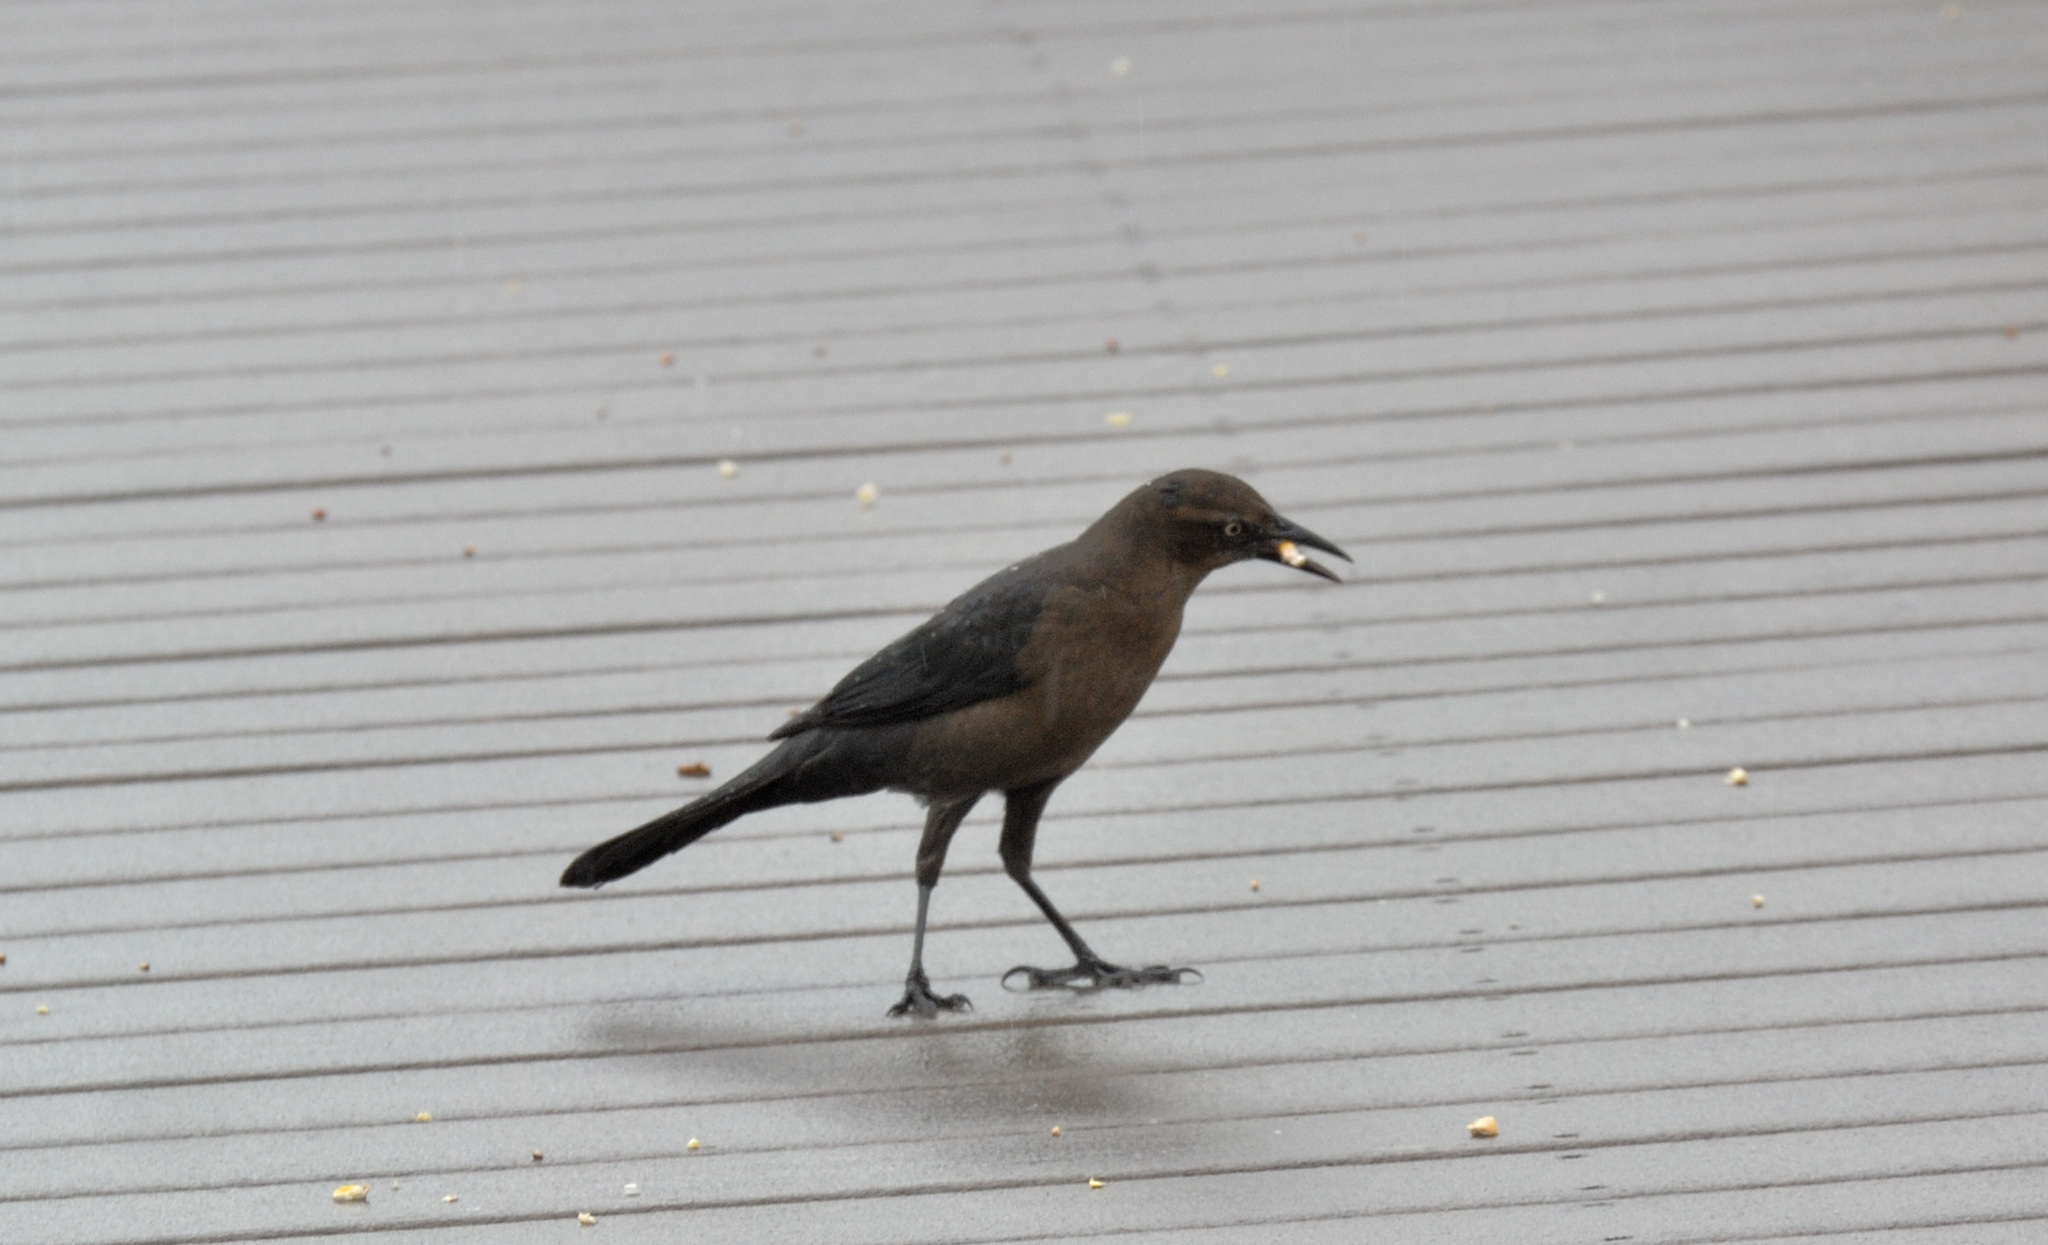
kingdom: Animalia
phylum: Chordata
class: Aves
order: Passeriformes
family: Icteridae
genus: Quiscalus
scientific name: Quiscalus mexicanus
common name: Great-tailed grackle
